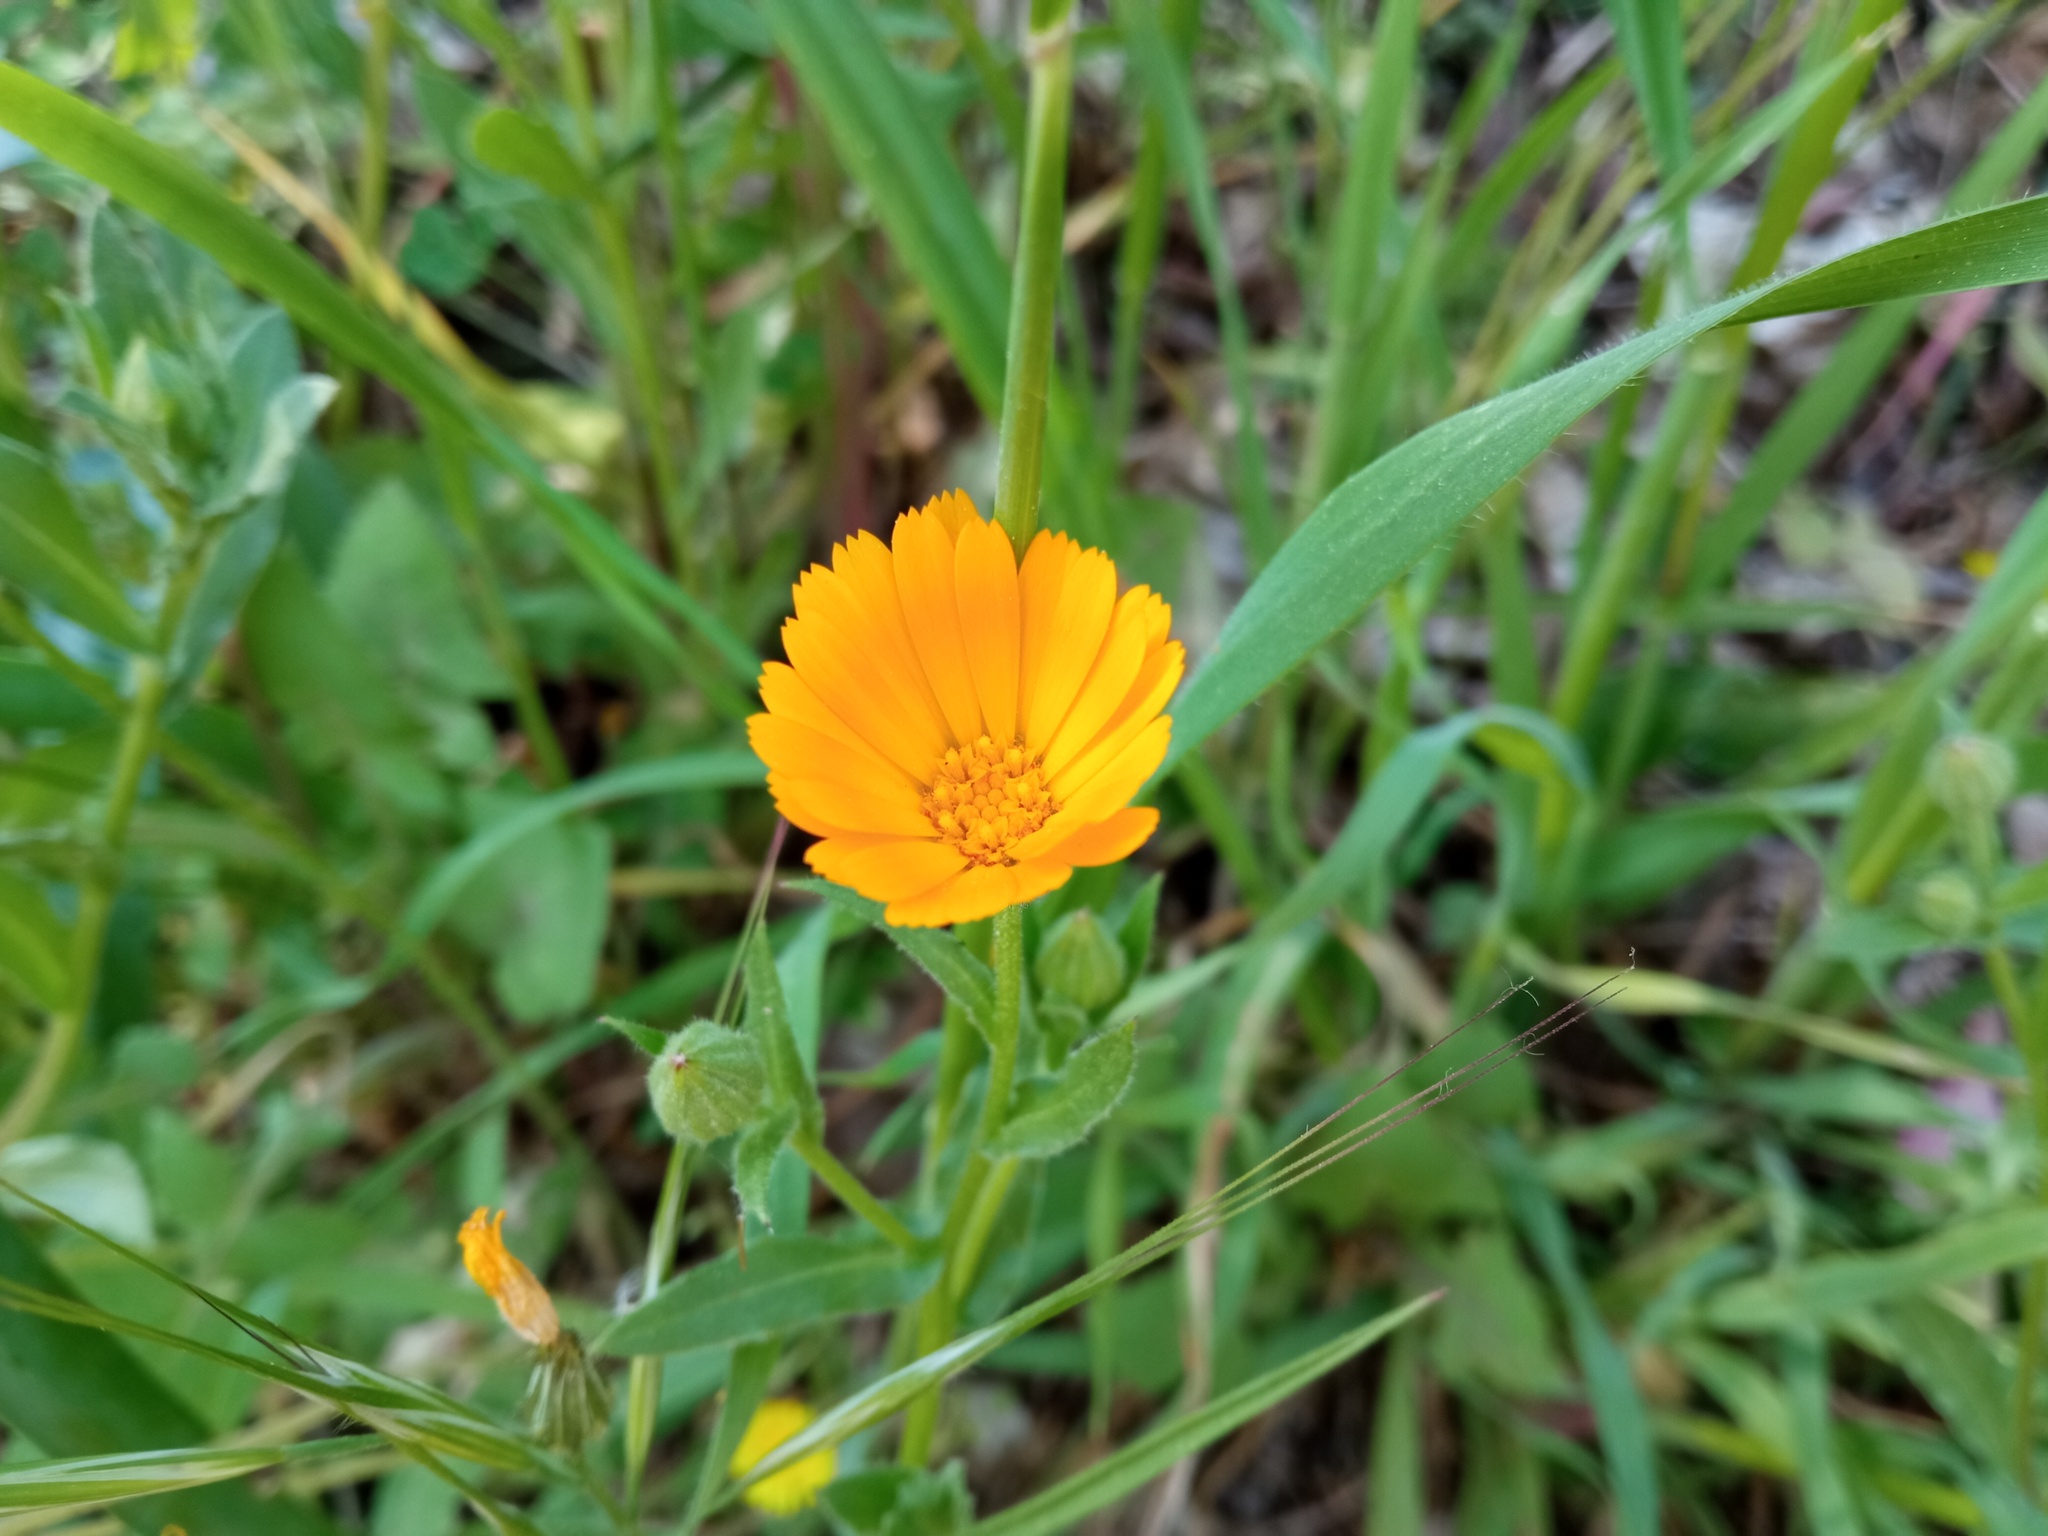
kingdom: Plantae
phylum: Tracheophyta
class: Magnoliopsida
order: Asterales
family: Asteraceae
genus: Calendula
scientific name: Calendula arvensis
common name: Field marigold
